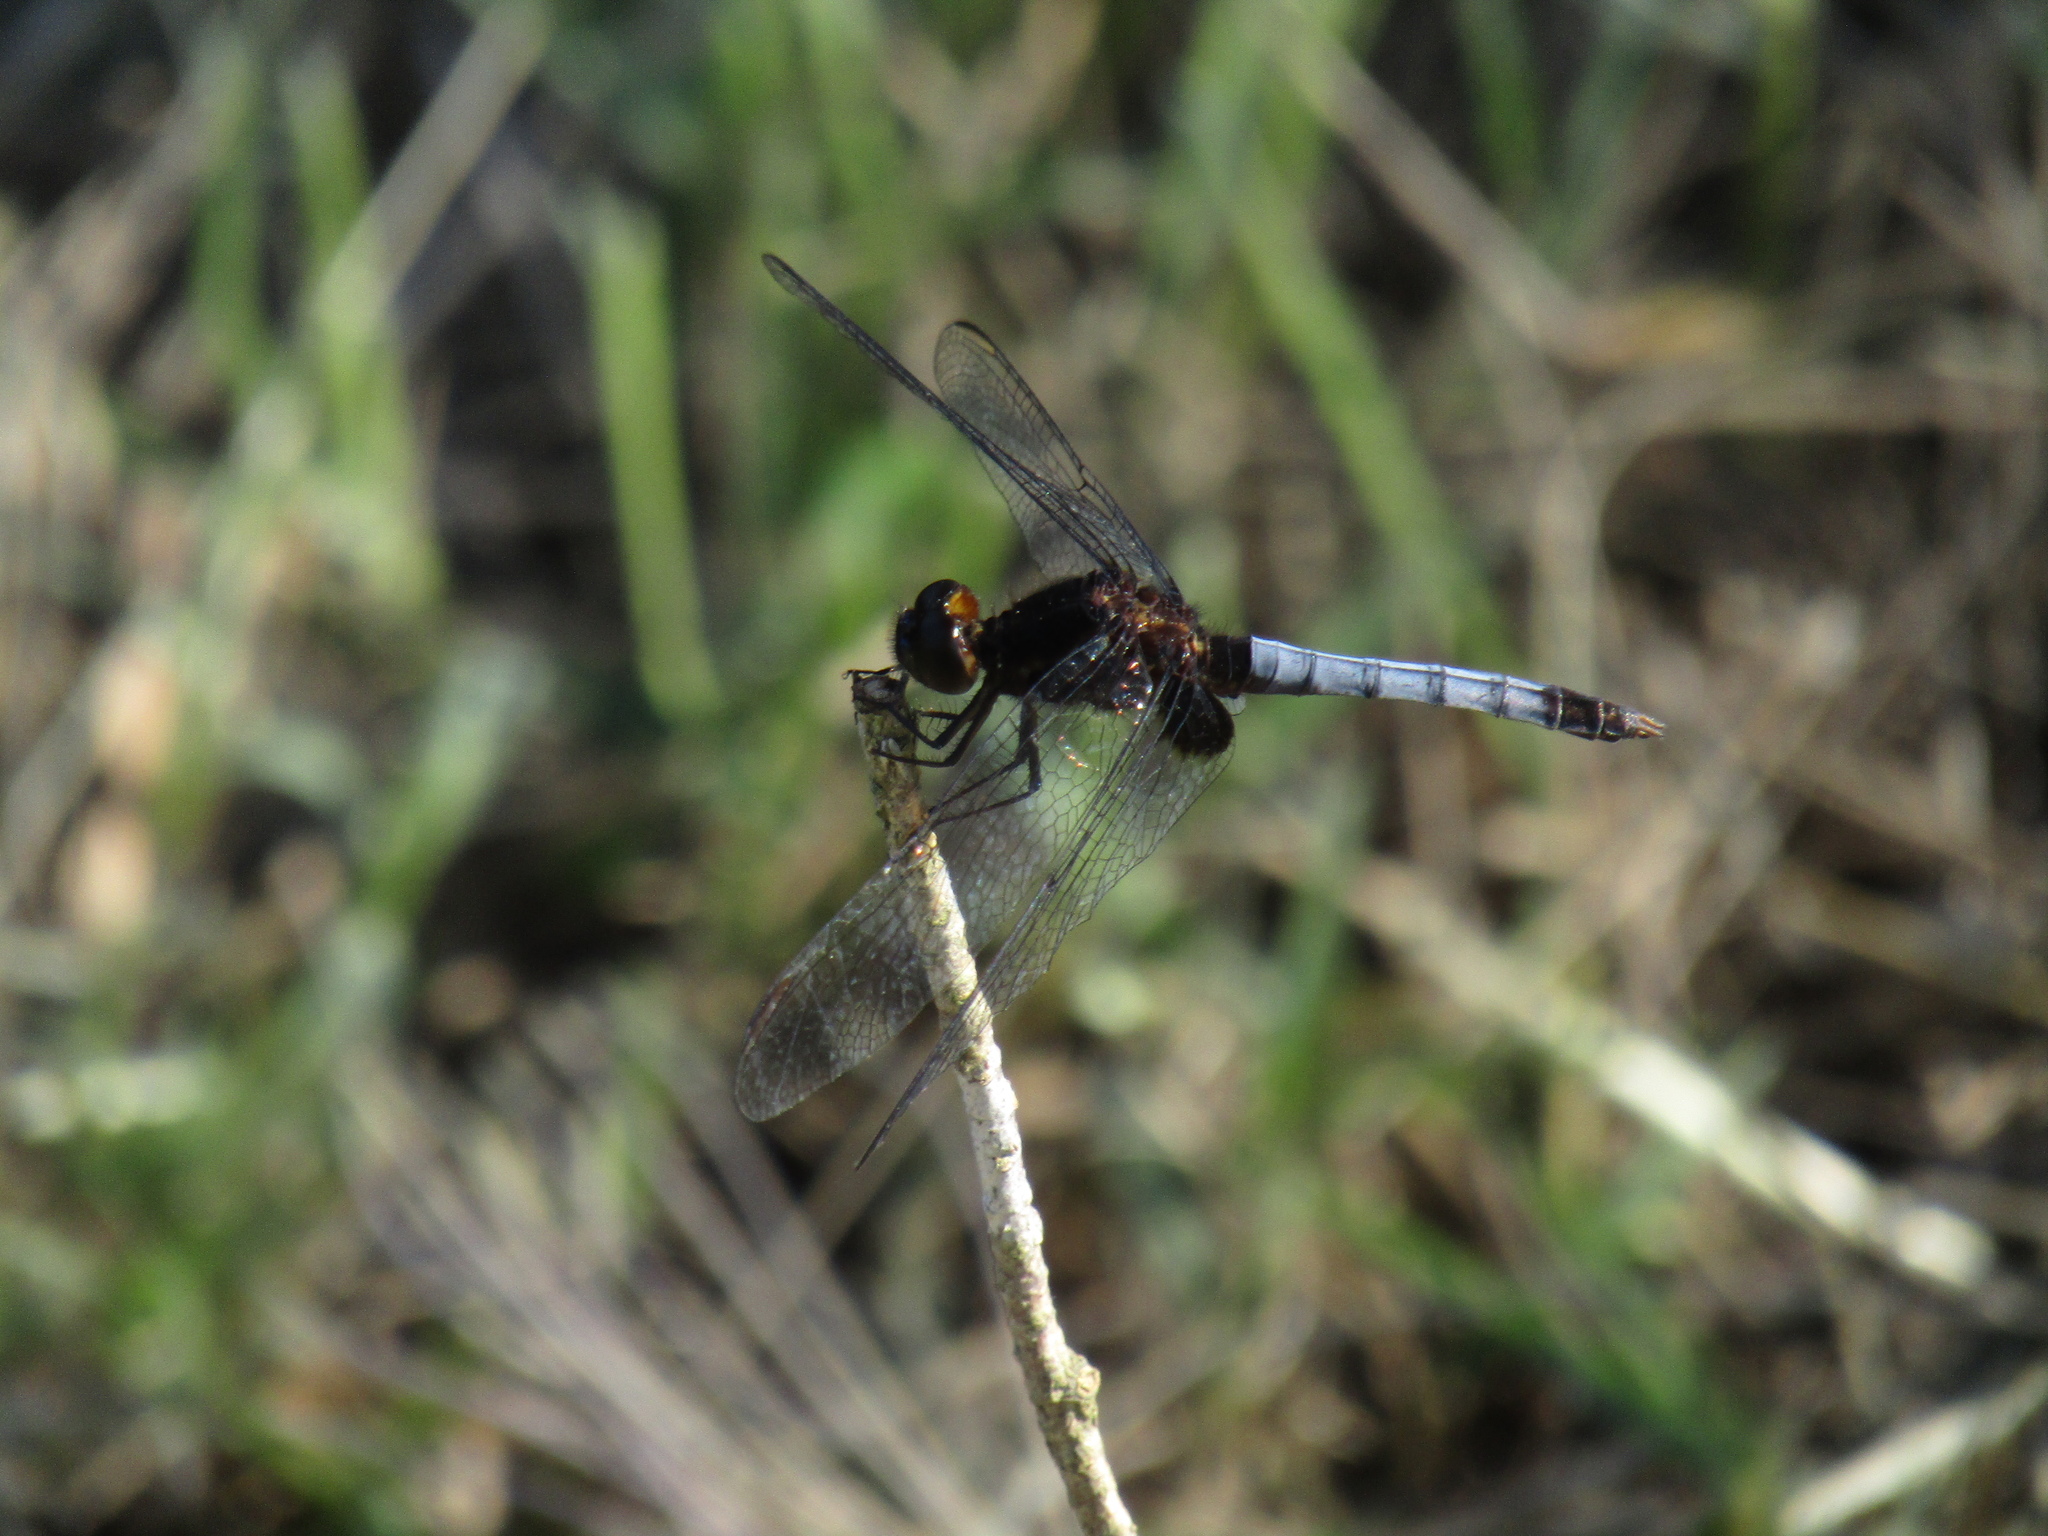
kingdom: Animalia
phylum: Arthropoda
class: Insecta
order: Odonata
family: Libellulidae
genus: Erythrodiplax
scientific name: Erythrodiplax media
